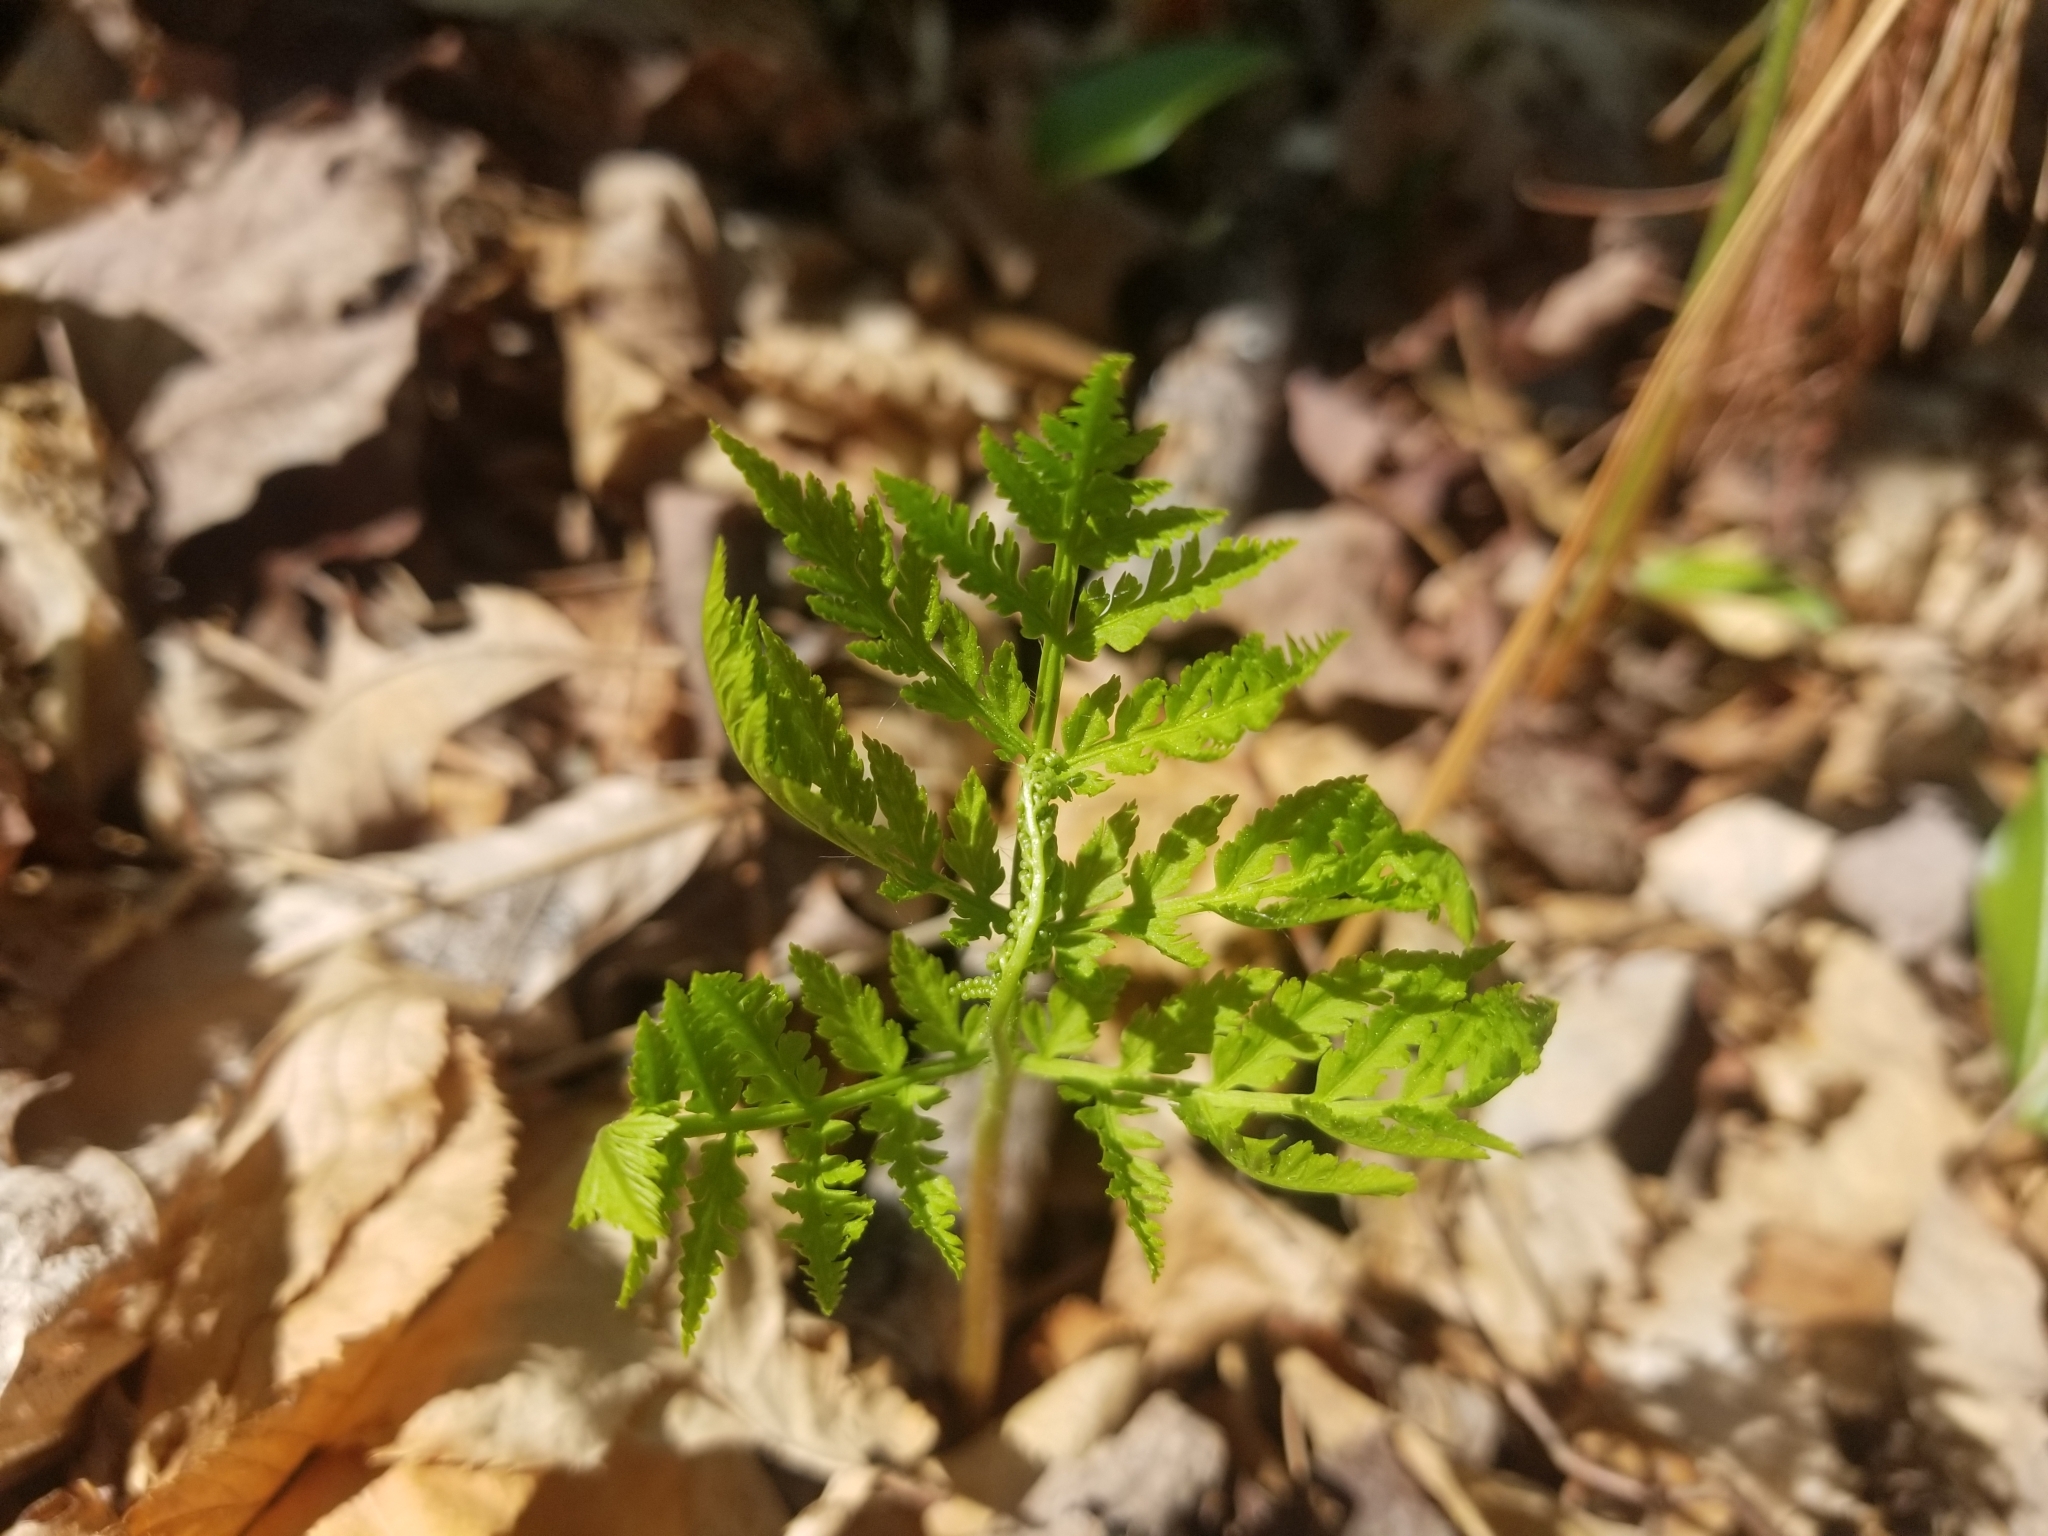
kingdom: Plantae
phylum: Tracheophyta
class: Polypodiopsida
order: Ophioglossales
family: Ophioglossaceae
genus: Botrypus
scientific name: Botrypus virginianus
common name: Common grapefern
